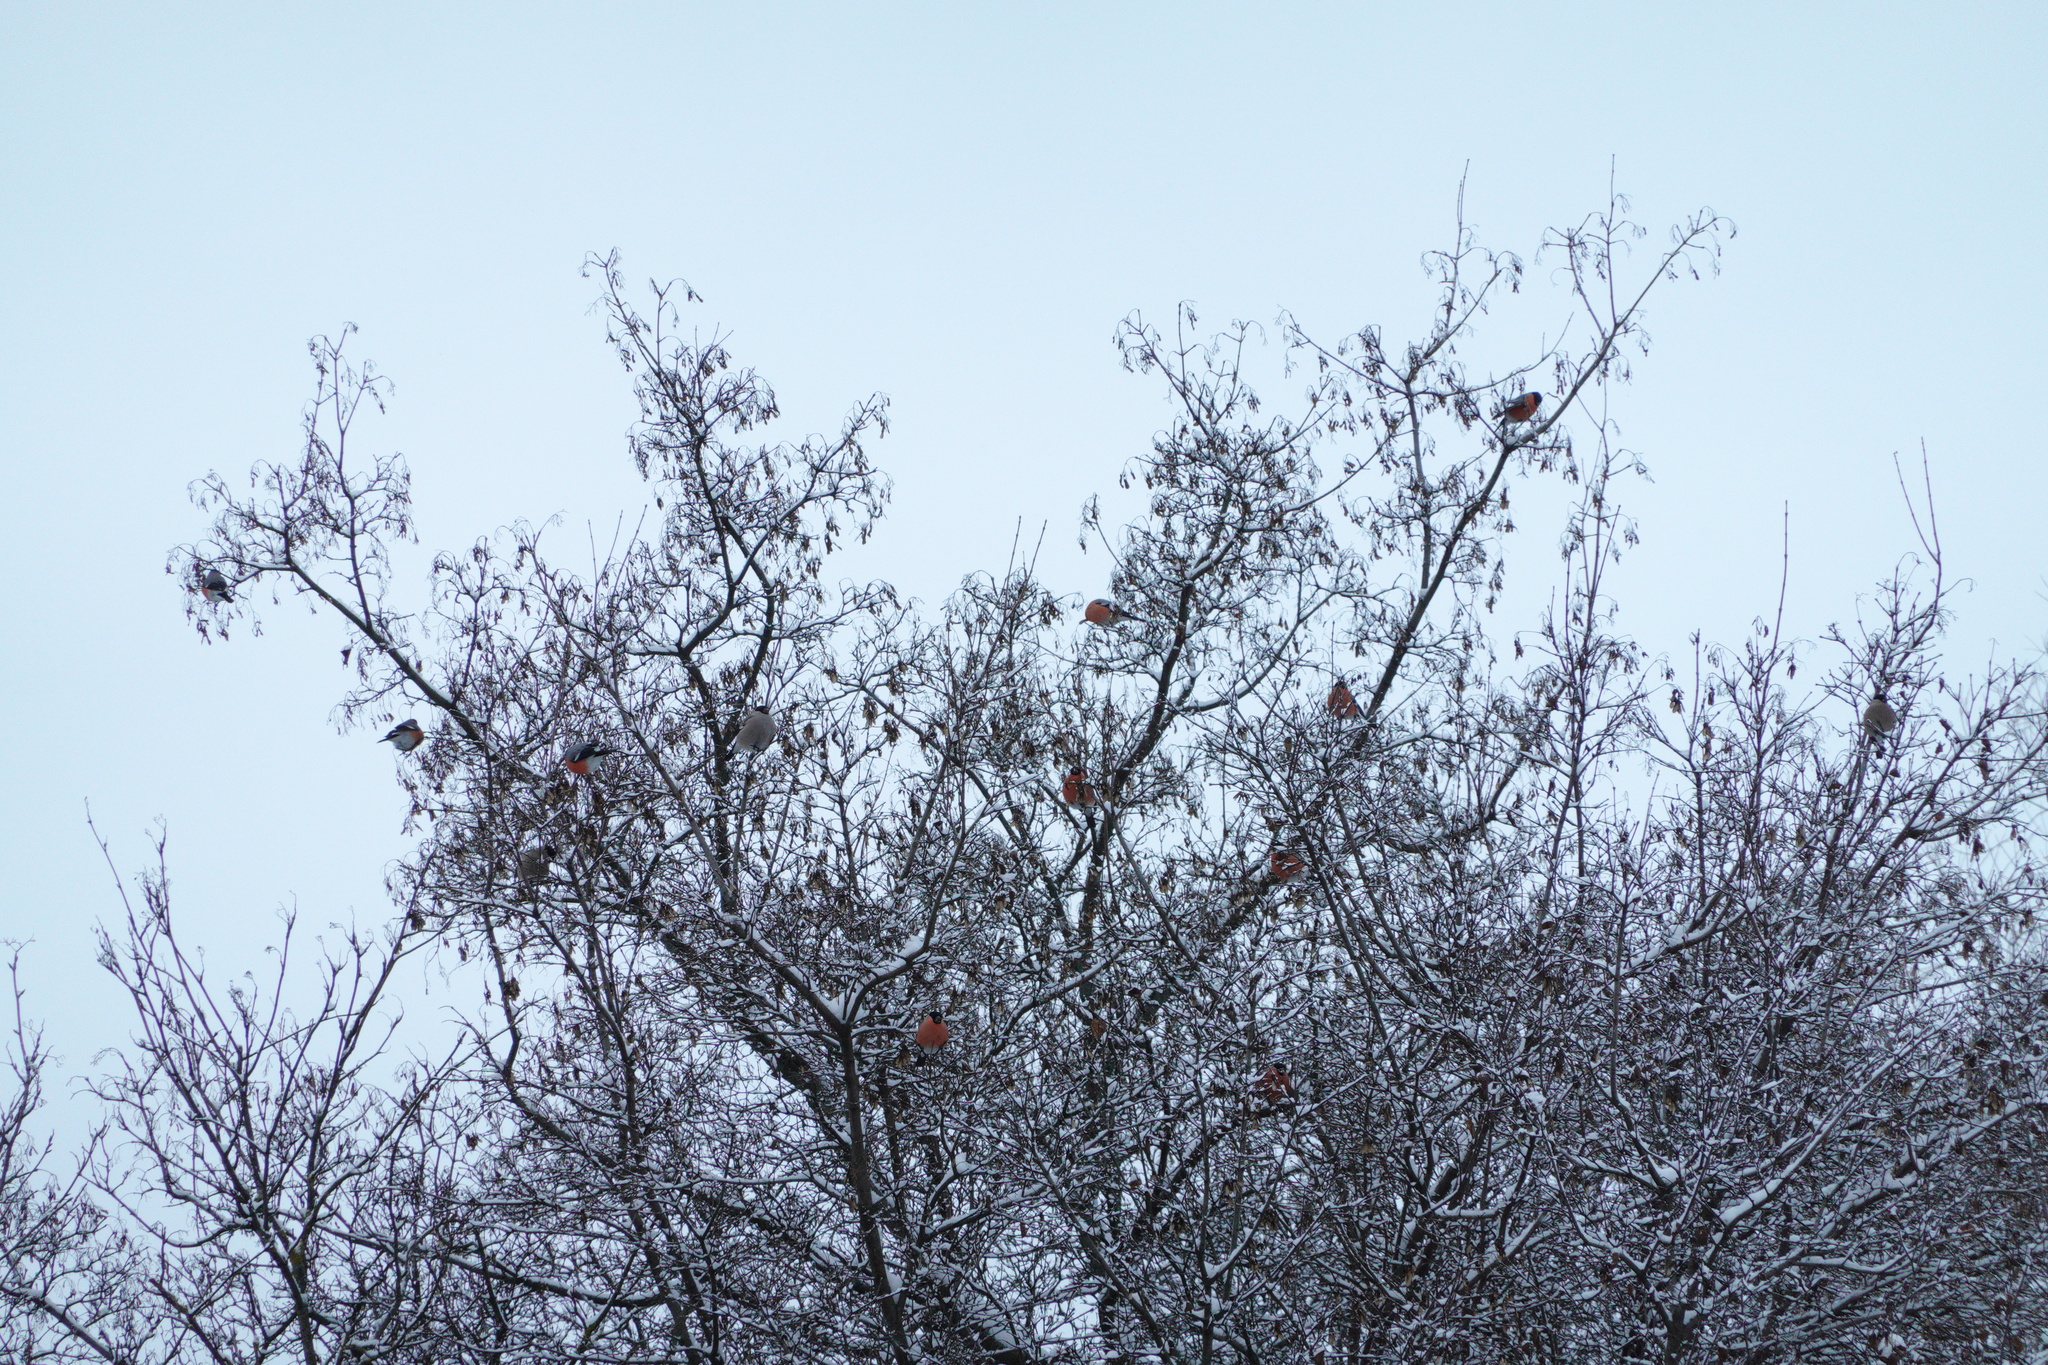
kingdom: Animalia
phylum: Chordata
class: Aves
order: Passeriformes
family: Fringillidae
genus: Pyrrhula
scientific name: Pyrrhula pyrrhula
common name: Eurasian bullfinch
